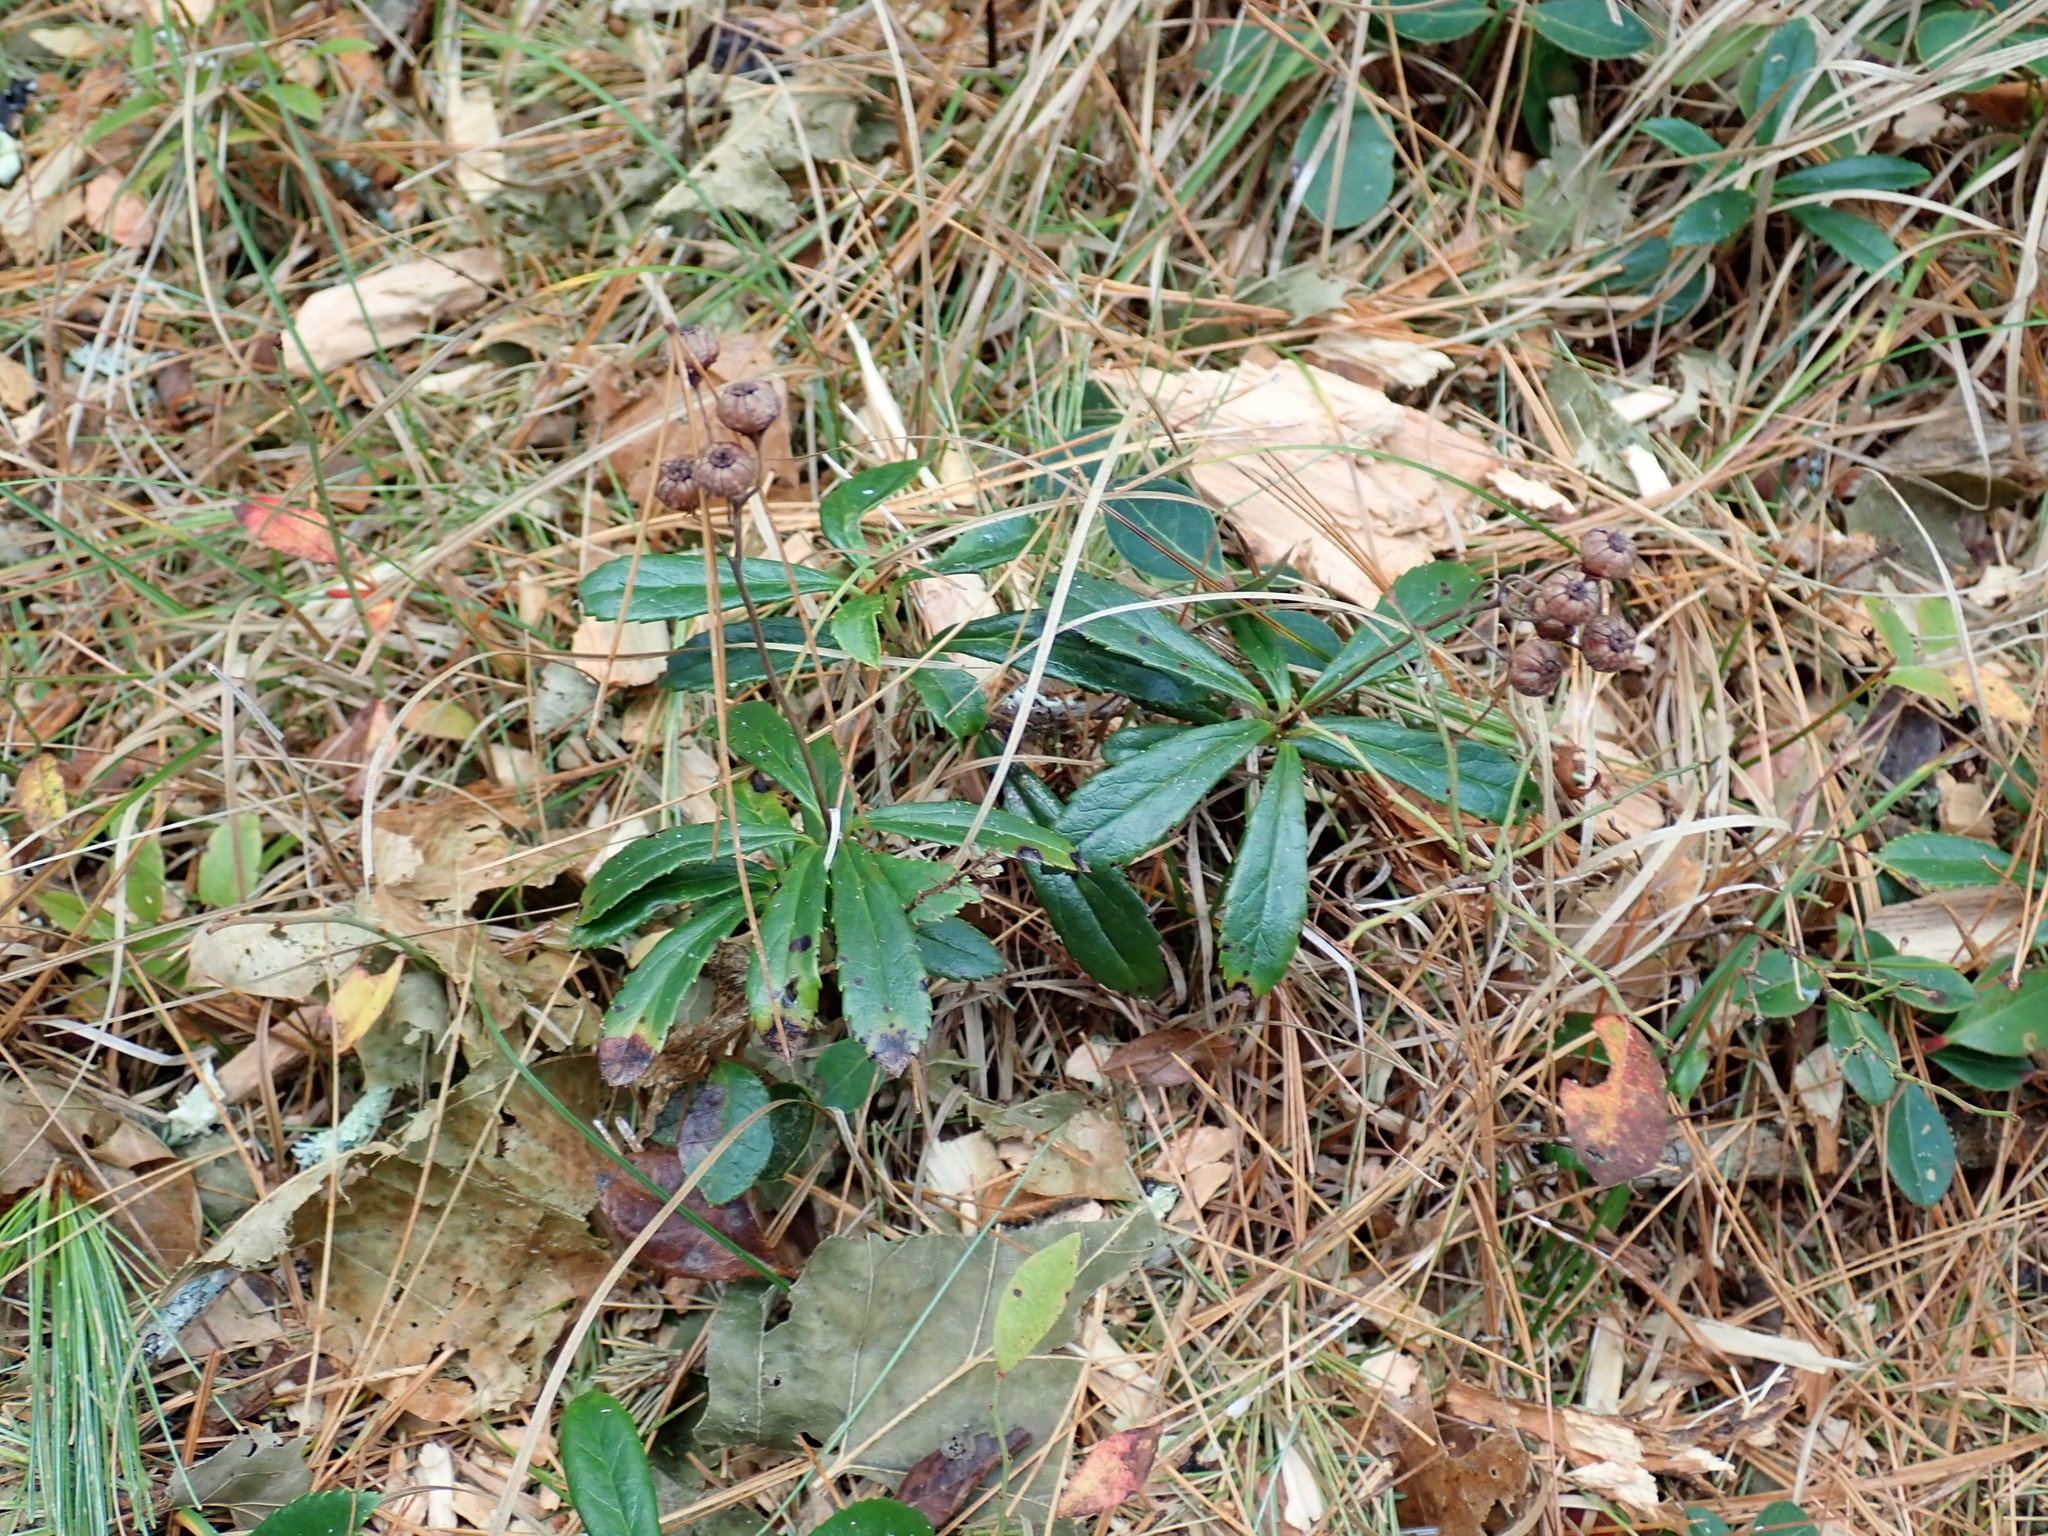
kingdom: Plantae
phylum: Tracheophyta
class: Magnoliopsida
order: Ericales
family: Ericaceae
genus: Chimaphila
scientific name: Chimaphila umbellata
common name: Pipsissewa
